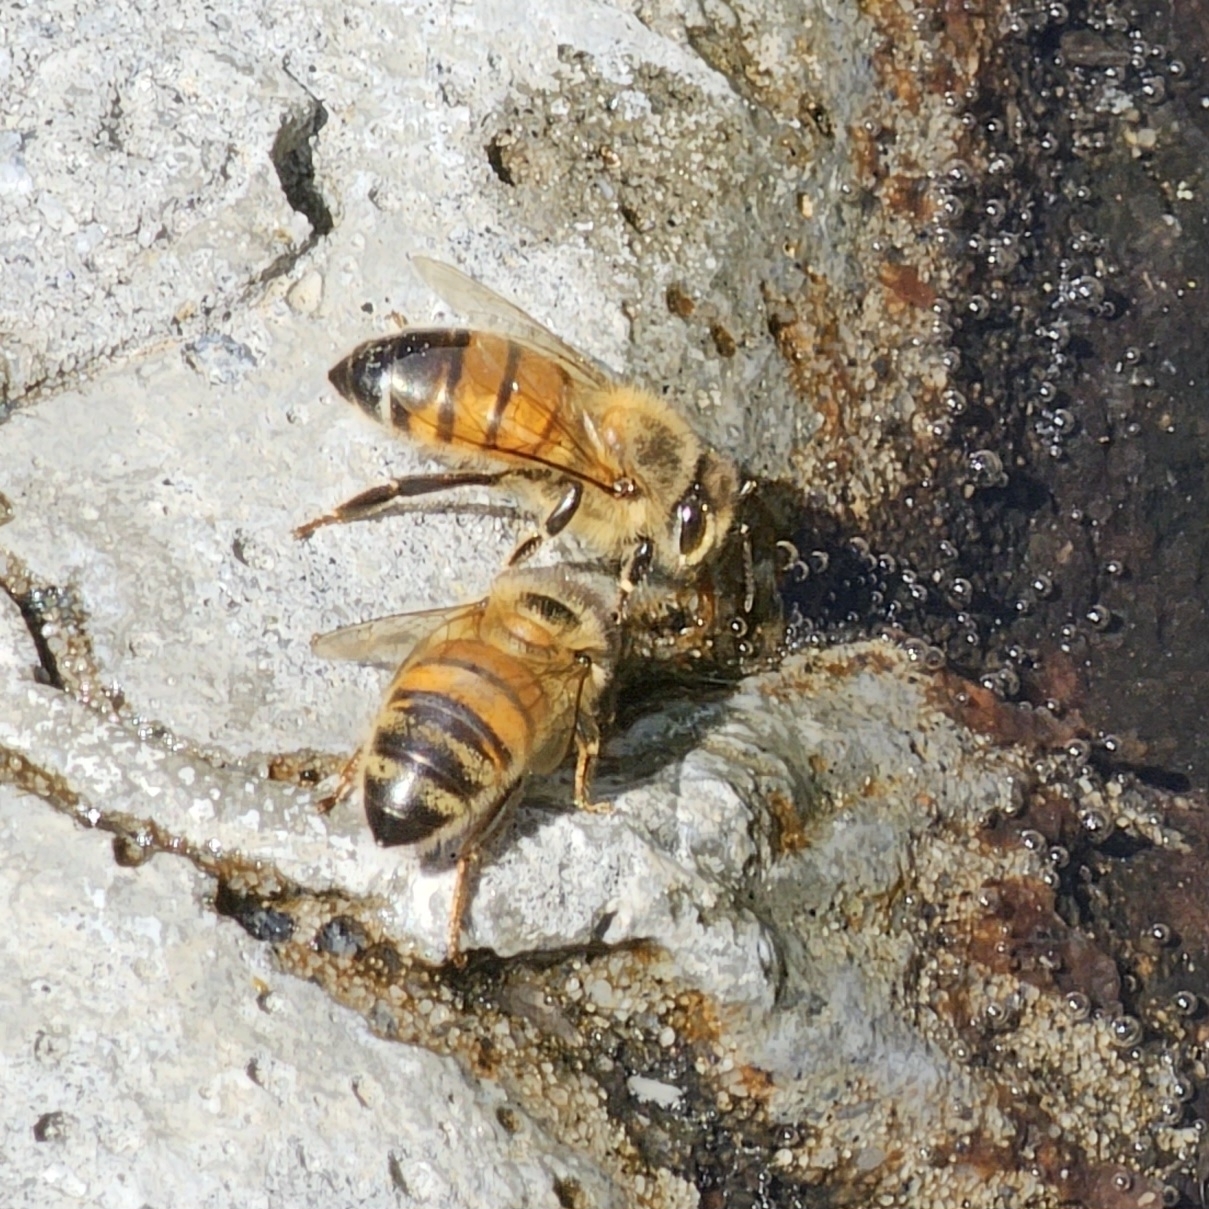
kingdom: Animalia
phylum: Arthropoda
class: Insecta
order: Hymenoptera
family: Apidae
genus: Apis
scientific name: Apis mellifera
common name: Honey bee
